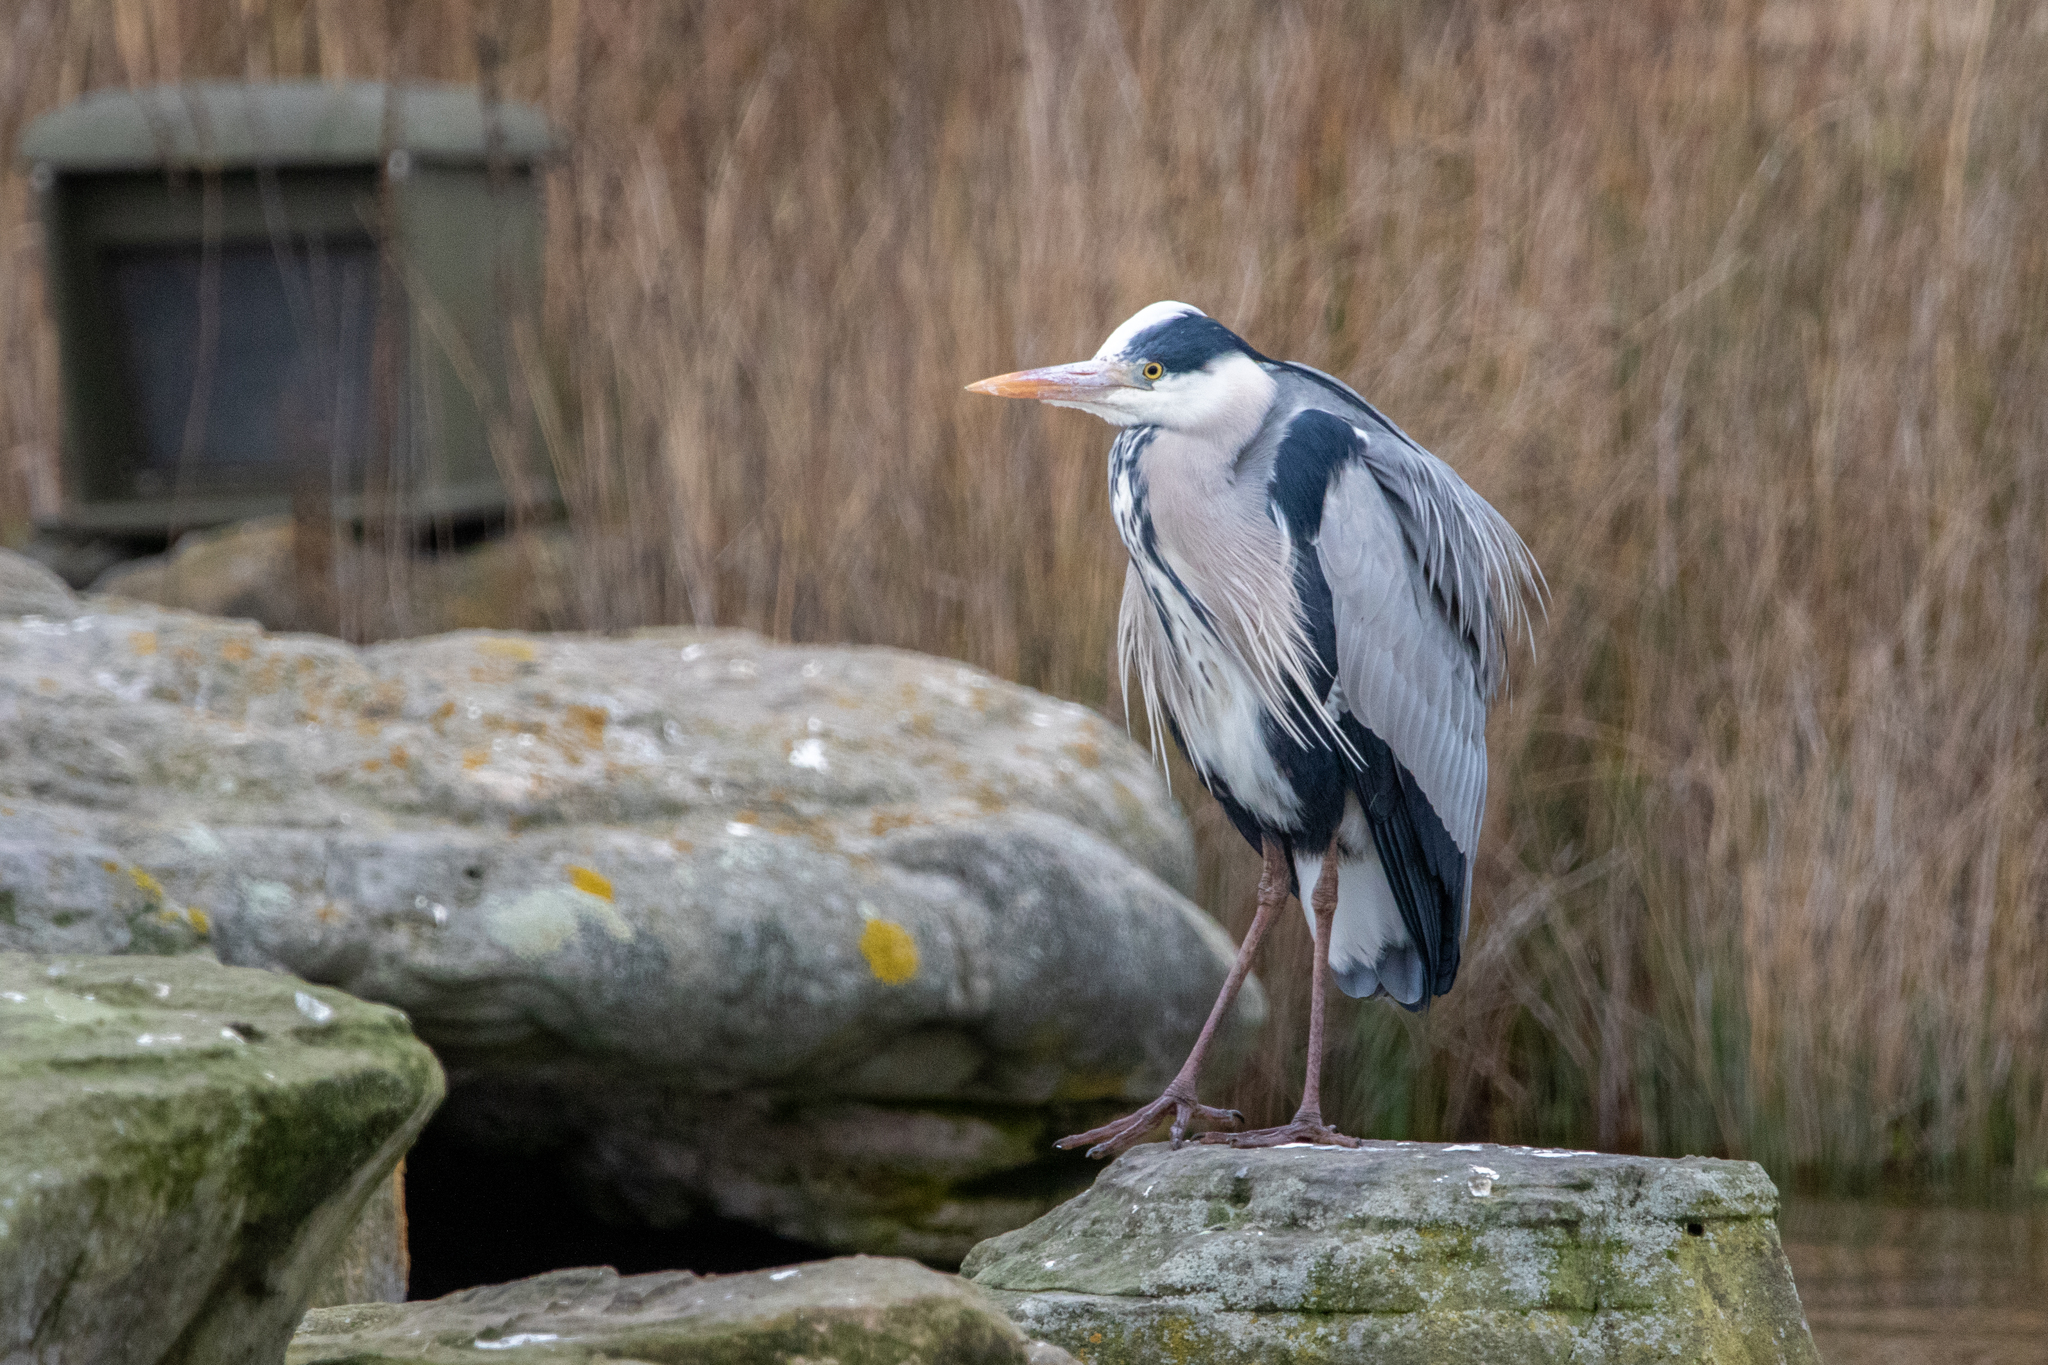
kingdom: Animalia
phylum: Chordata
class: Aves
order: Pelecaniformes
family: Ardeidae
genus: Ardea
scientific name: Ardea cinerea
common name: Grey heron
